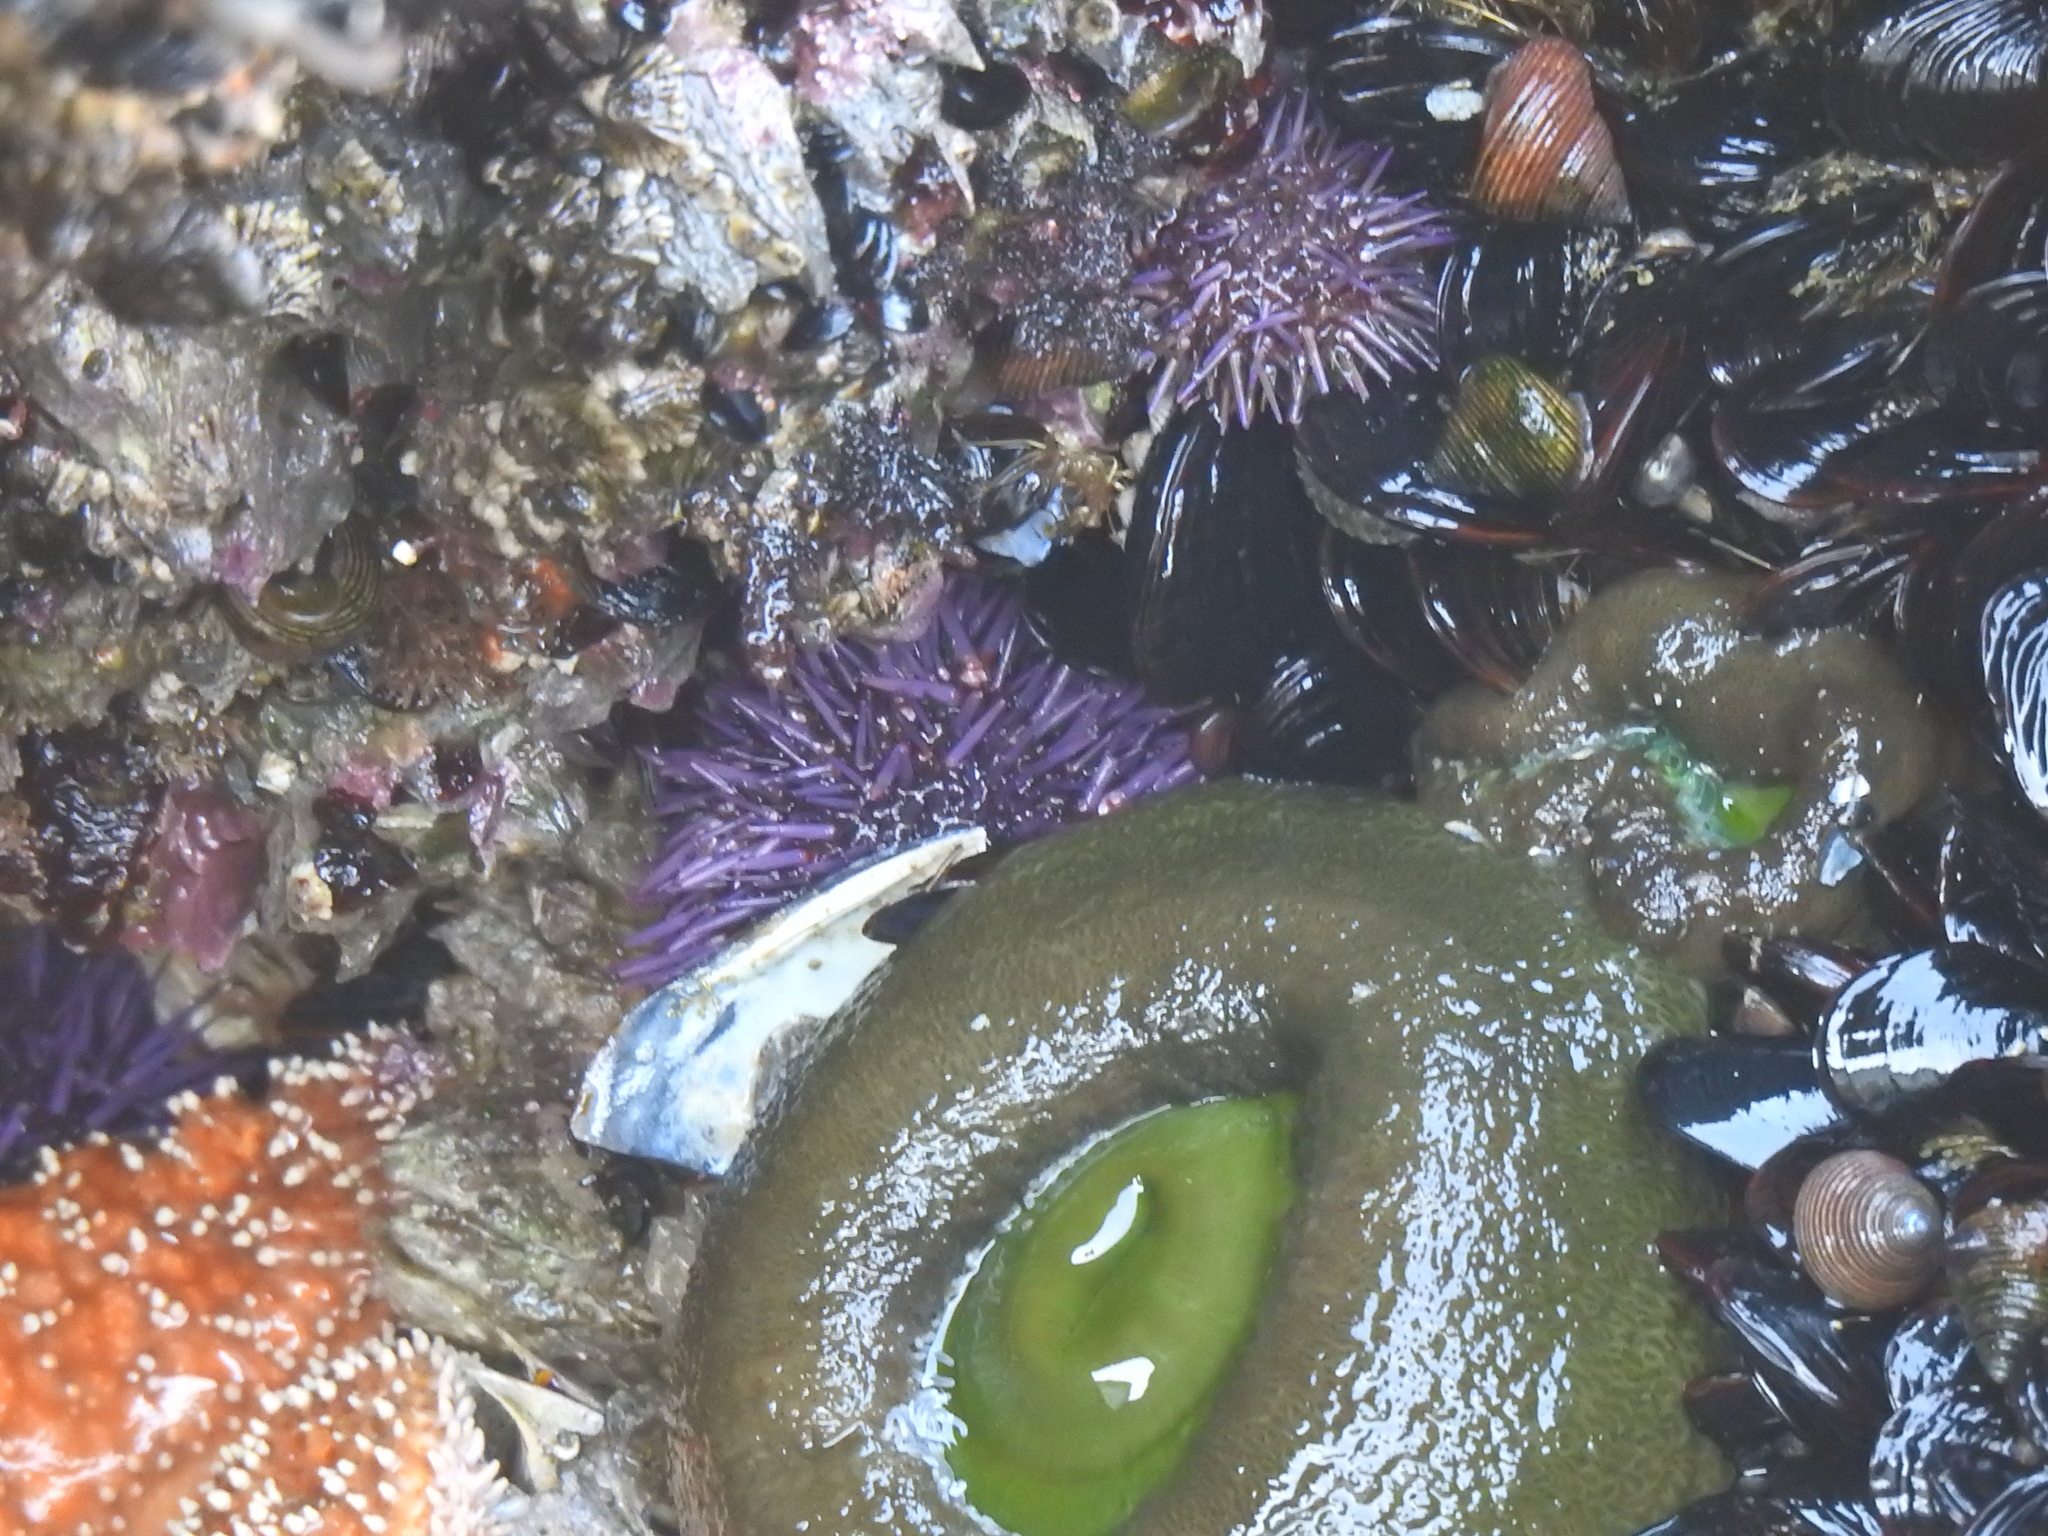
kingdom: Animalia
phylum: Echinodermata
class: Echinoidea
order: Camarodonta
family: Strongylocentrotidae
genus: Strongylocentrotus
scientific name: Strongylocentrotus purpuratus
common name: Purple sea urchin
